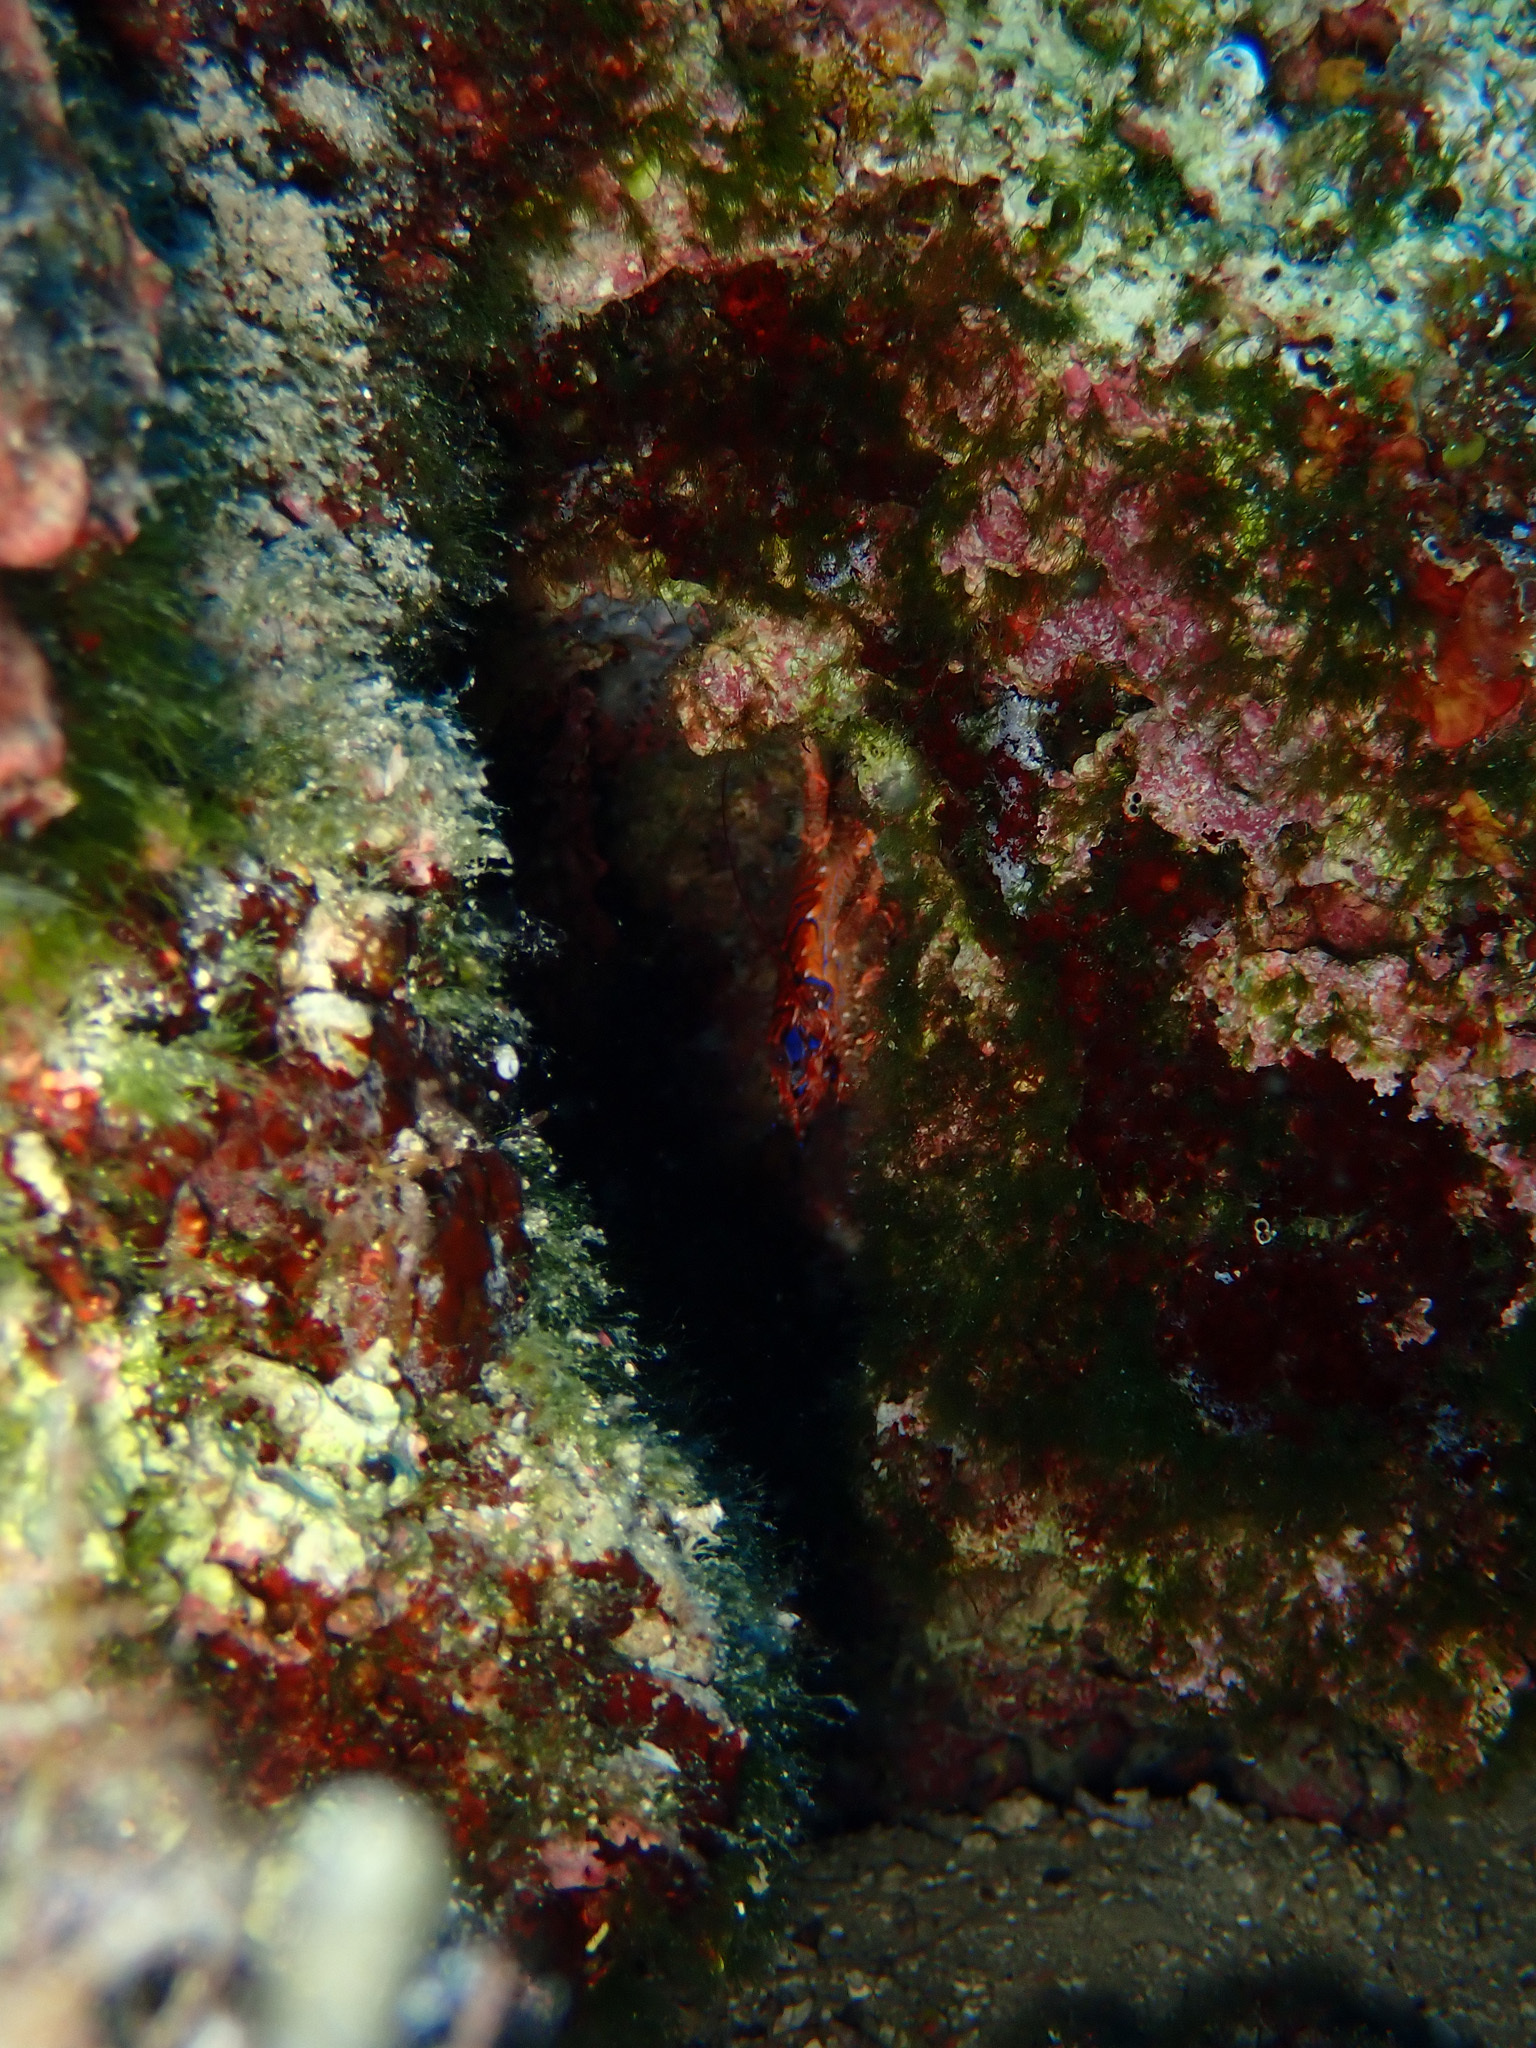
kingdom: Animalia
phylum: Arthropoda
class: Malacostraca
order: Decapoda
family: Galatheidae
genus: Galathea
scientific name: Galathea strigosa
